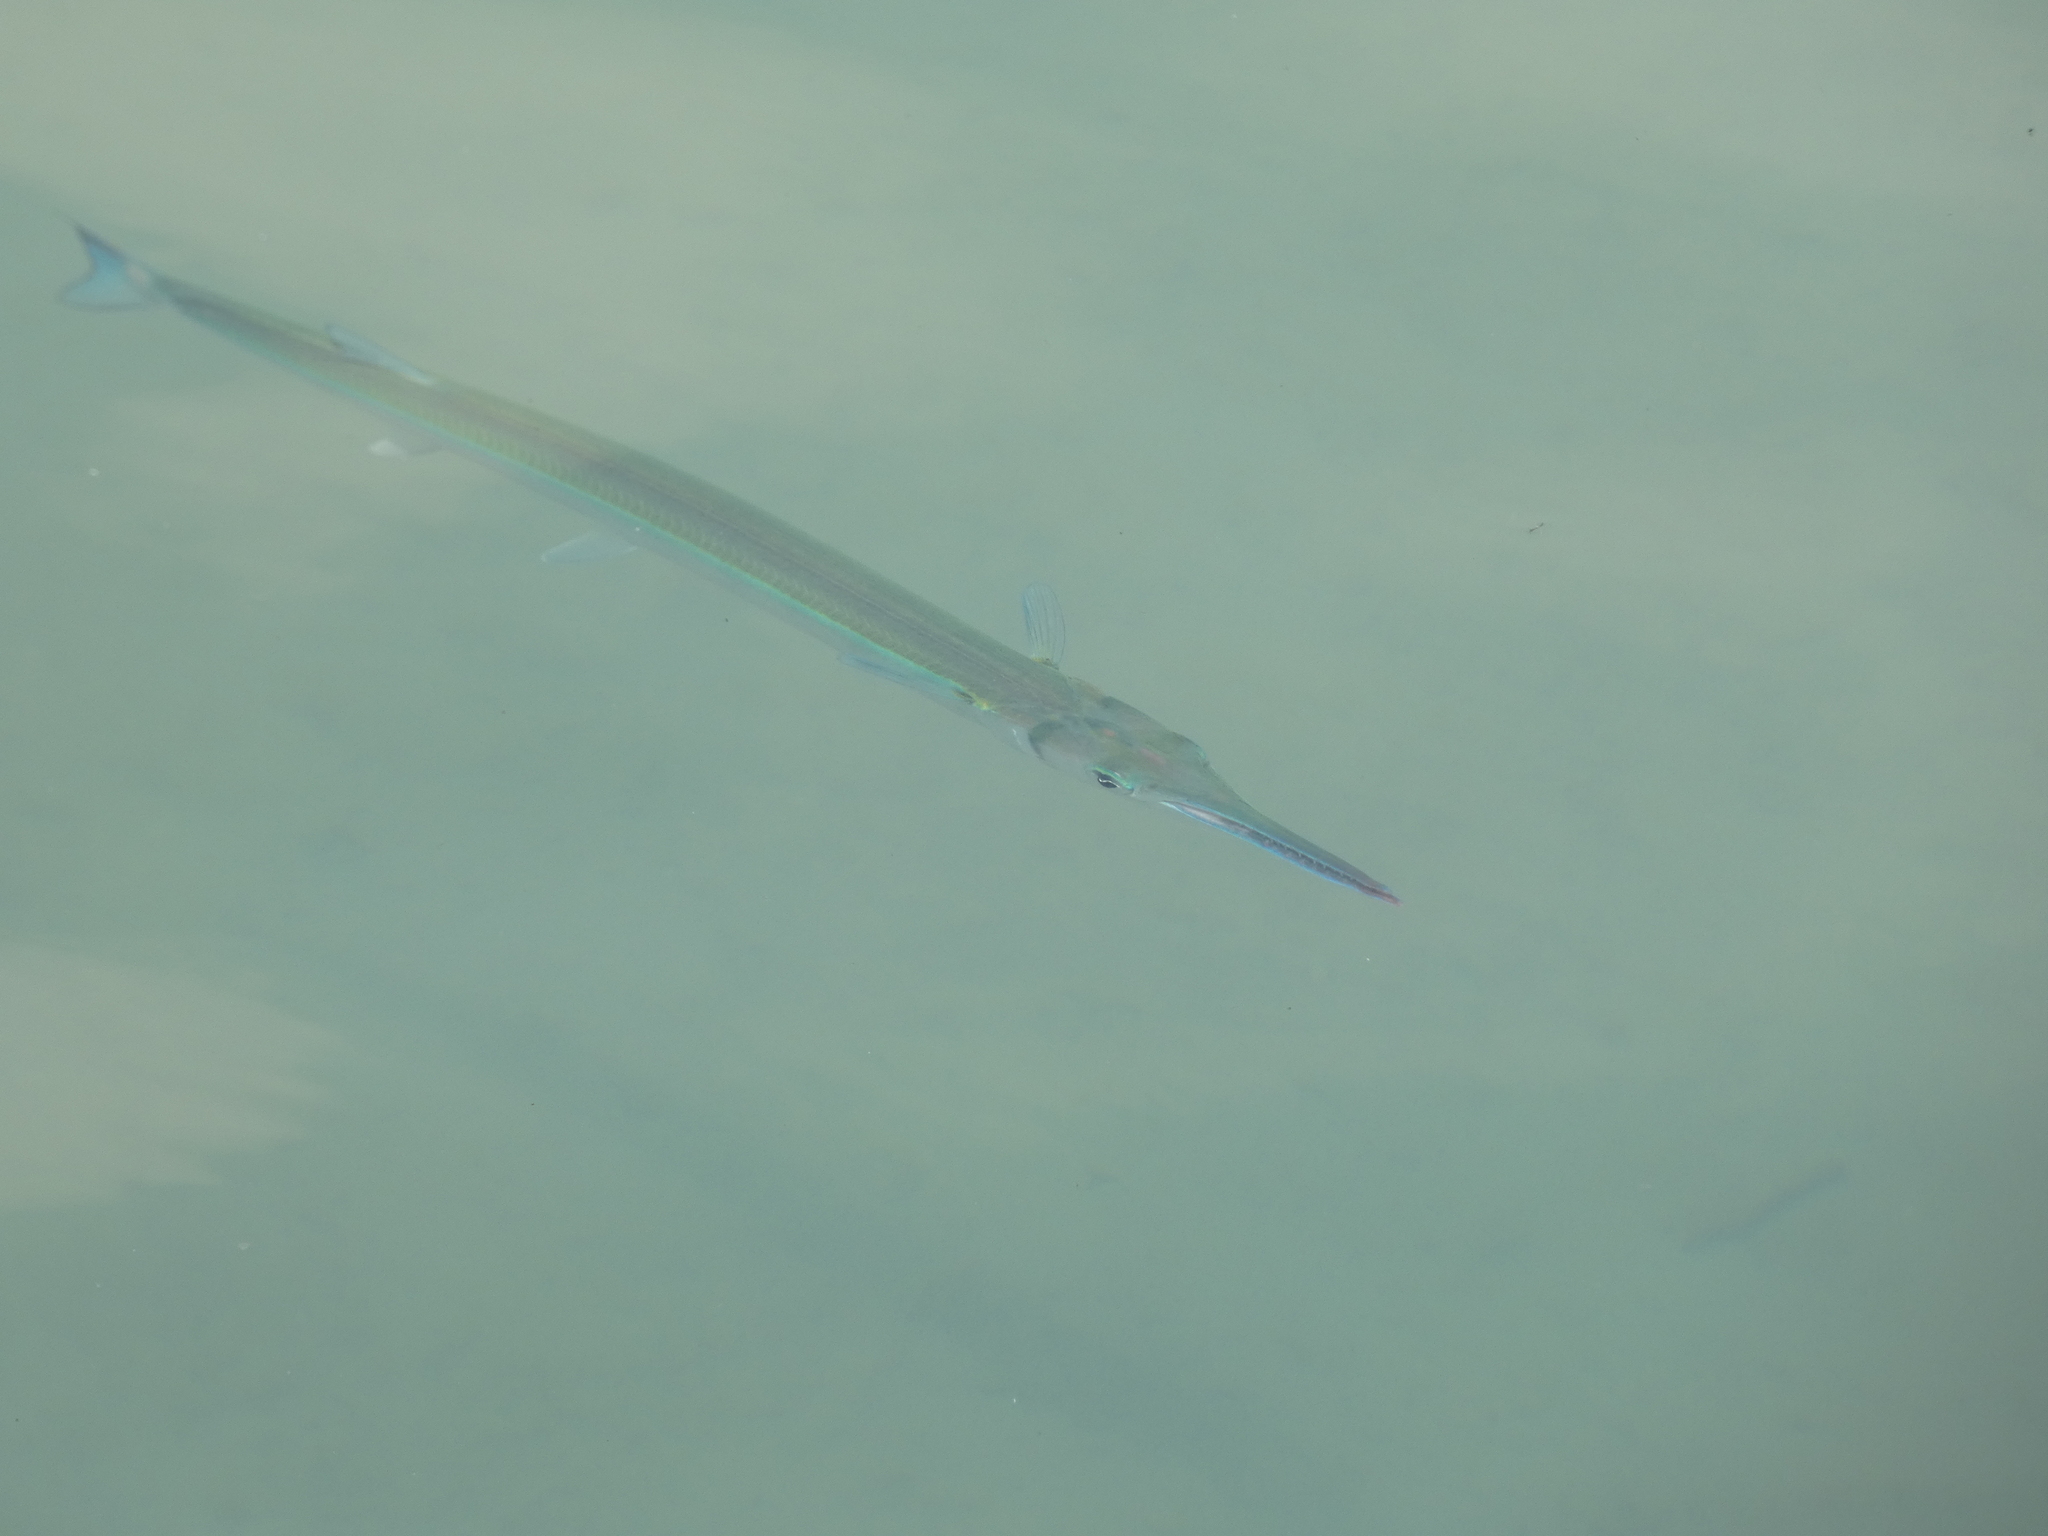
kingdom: Animalia
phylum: Chordata
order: Beloniformes
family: Belonidae
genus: Tylosurus
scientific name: Tylosurus crocodilus
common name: Houndfish
